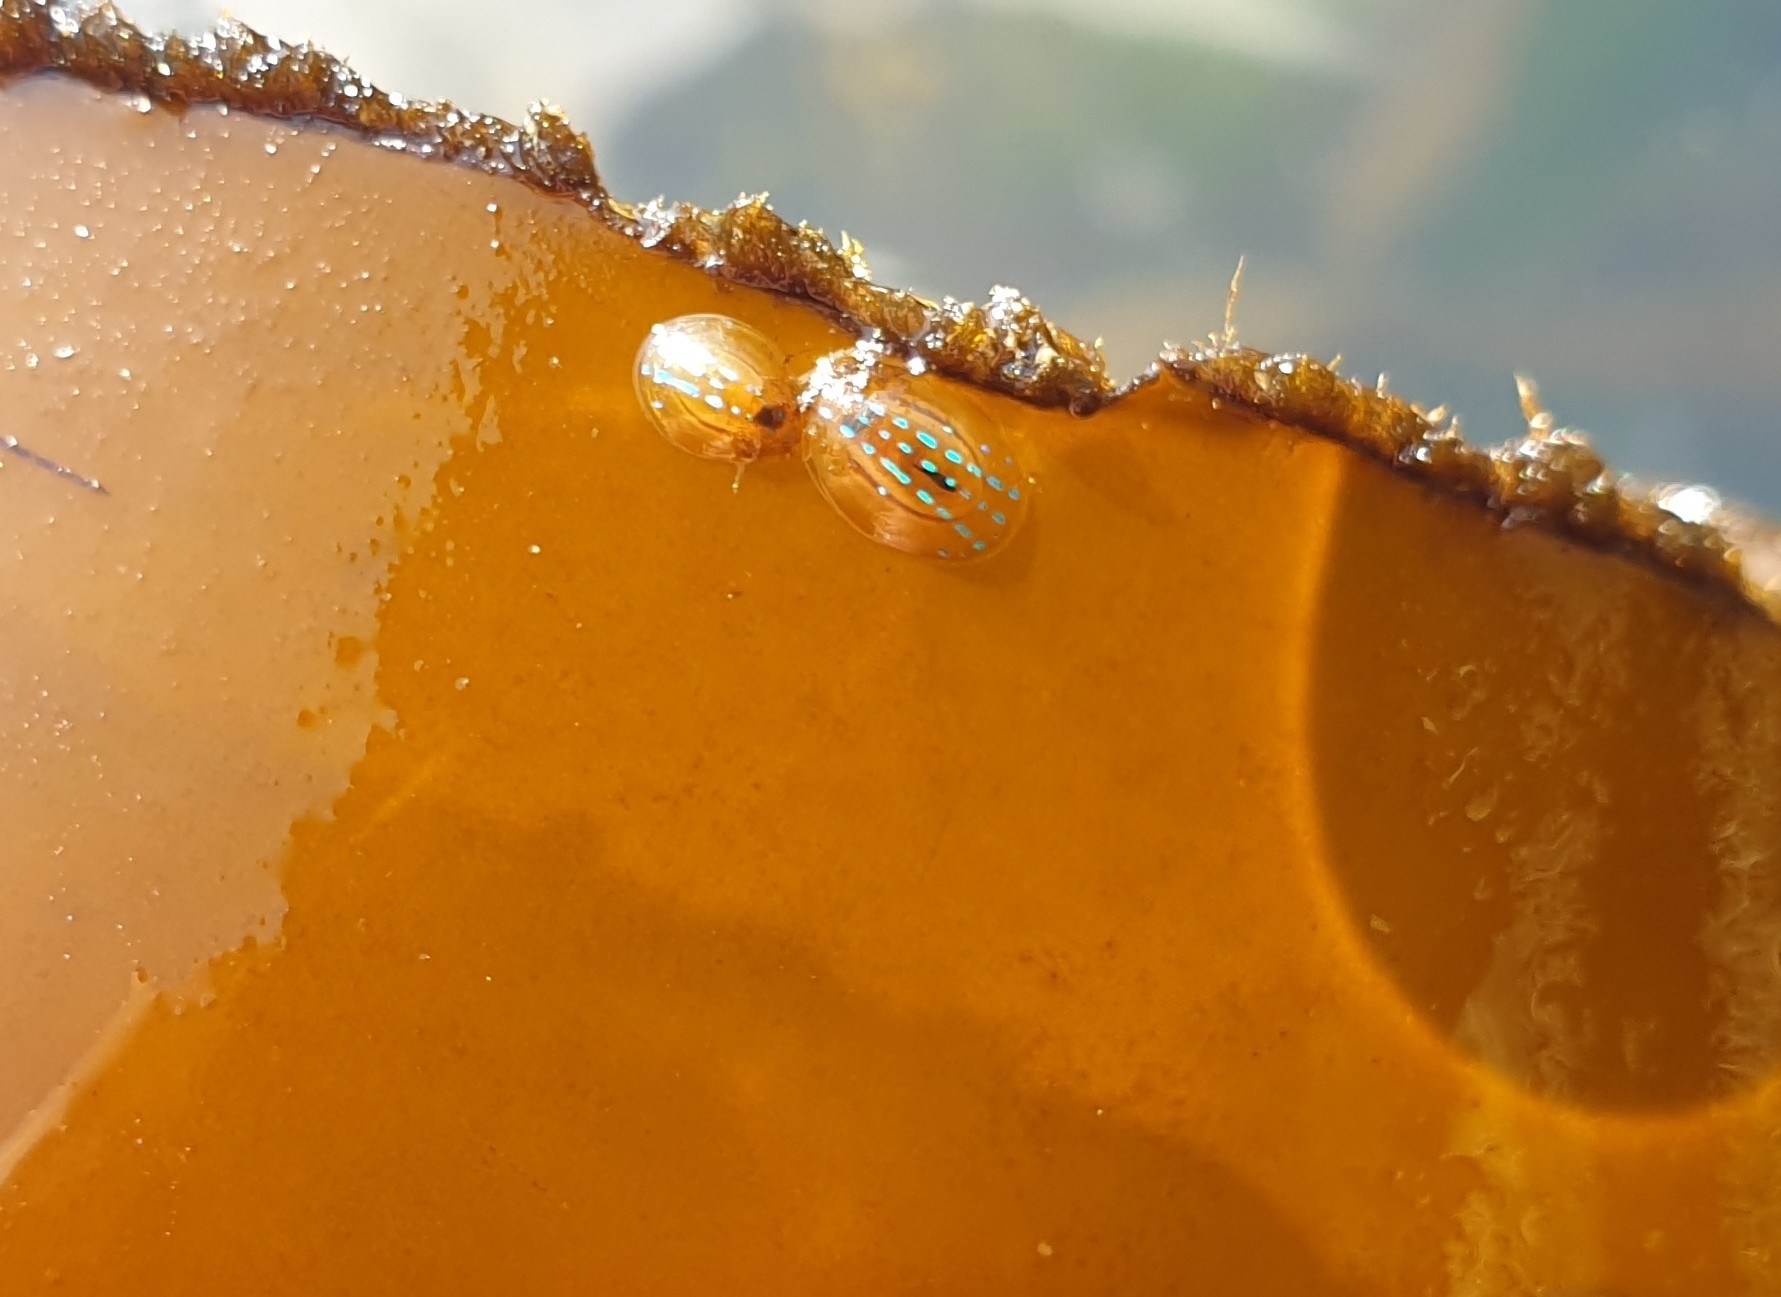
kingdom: Animalia
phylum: Mollusca
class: Gastropoda
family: Patellidae
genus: Patella
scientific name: Patella pellucida
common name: Blue-rayed limpet
